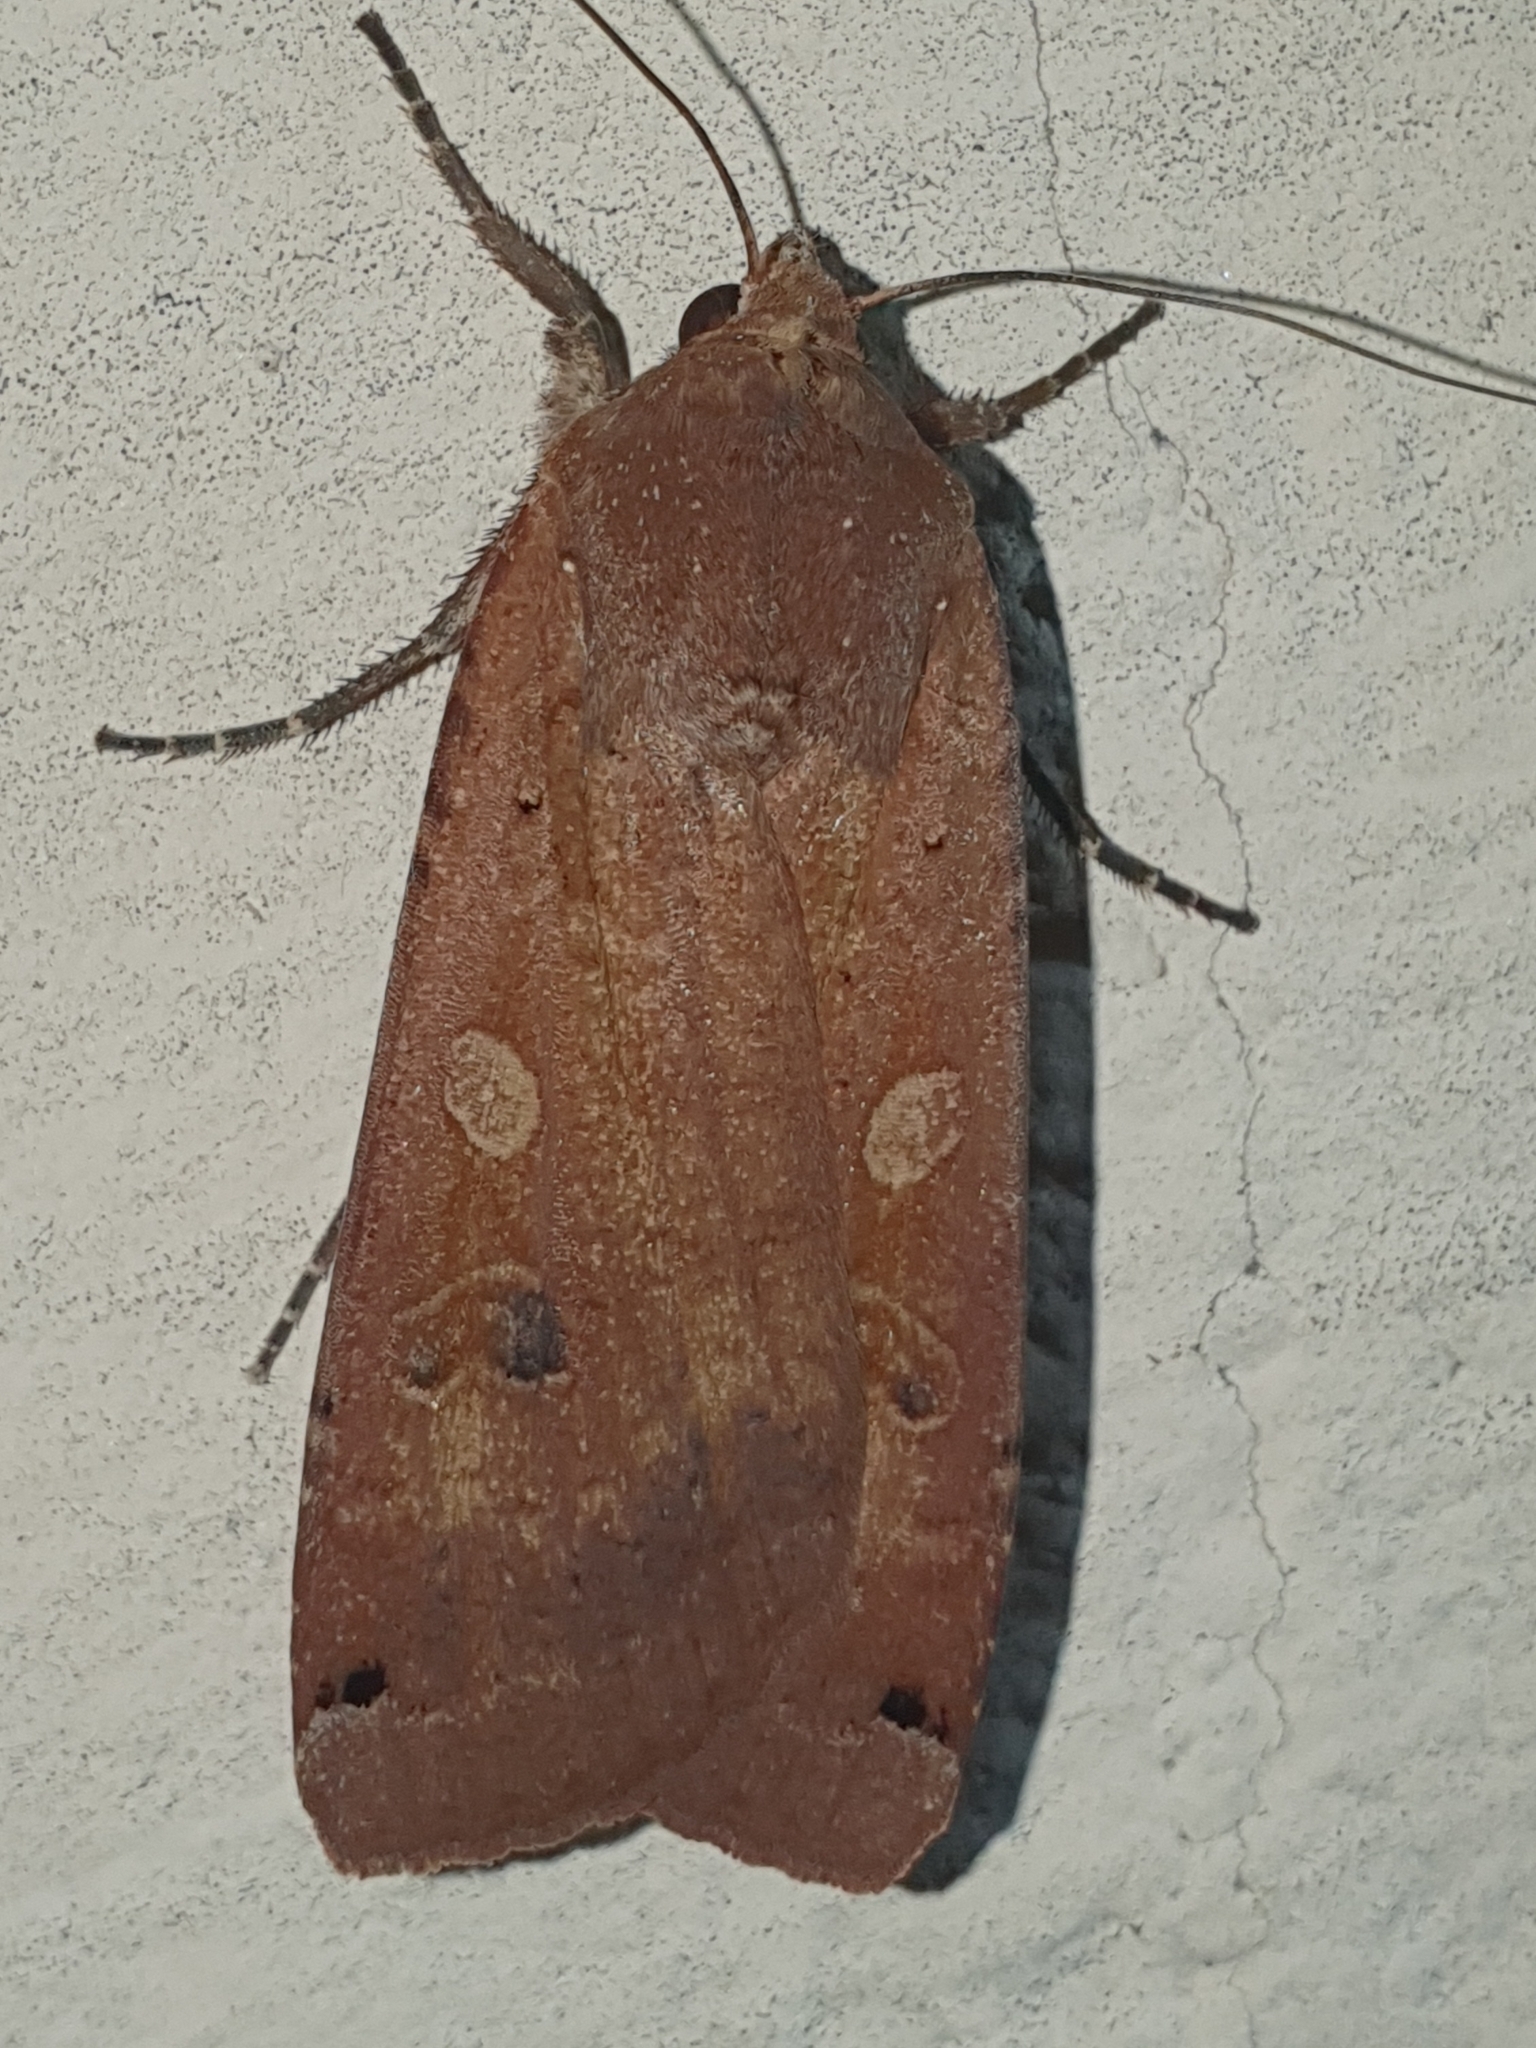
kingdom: Animalia
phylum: Arthropoda
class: Insecta
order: Lepidoptera
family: Noctuidae
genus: Noctua
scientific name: Noctua pronuba
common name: Large yellow underwing
